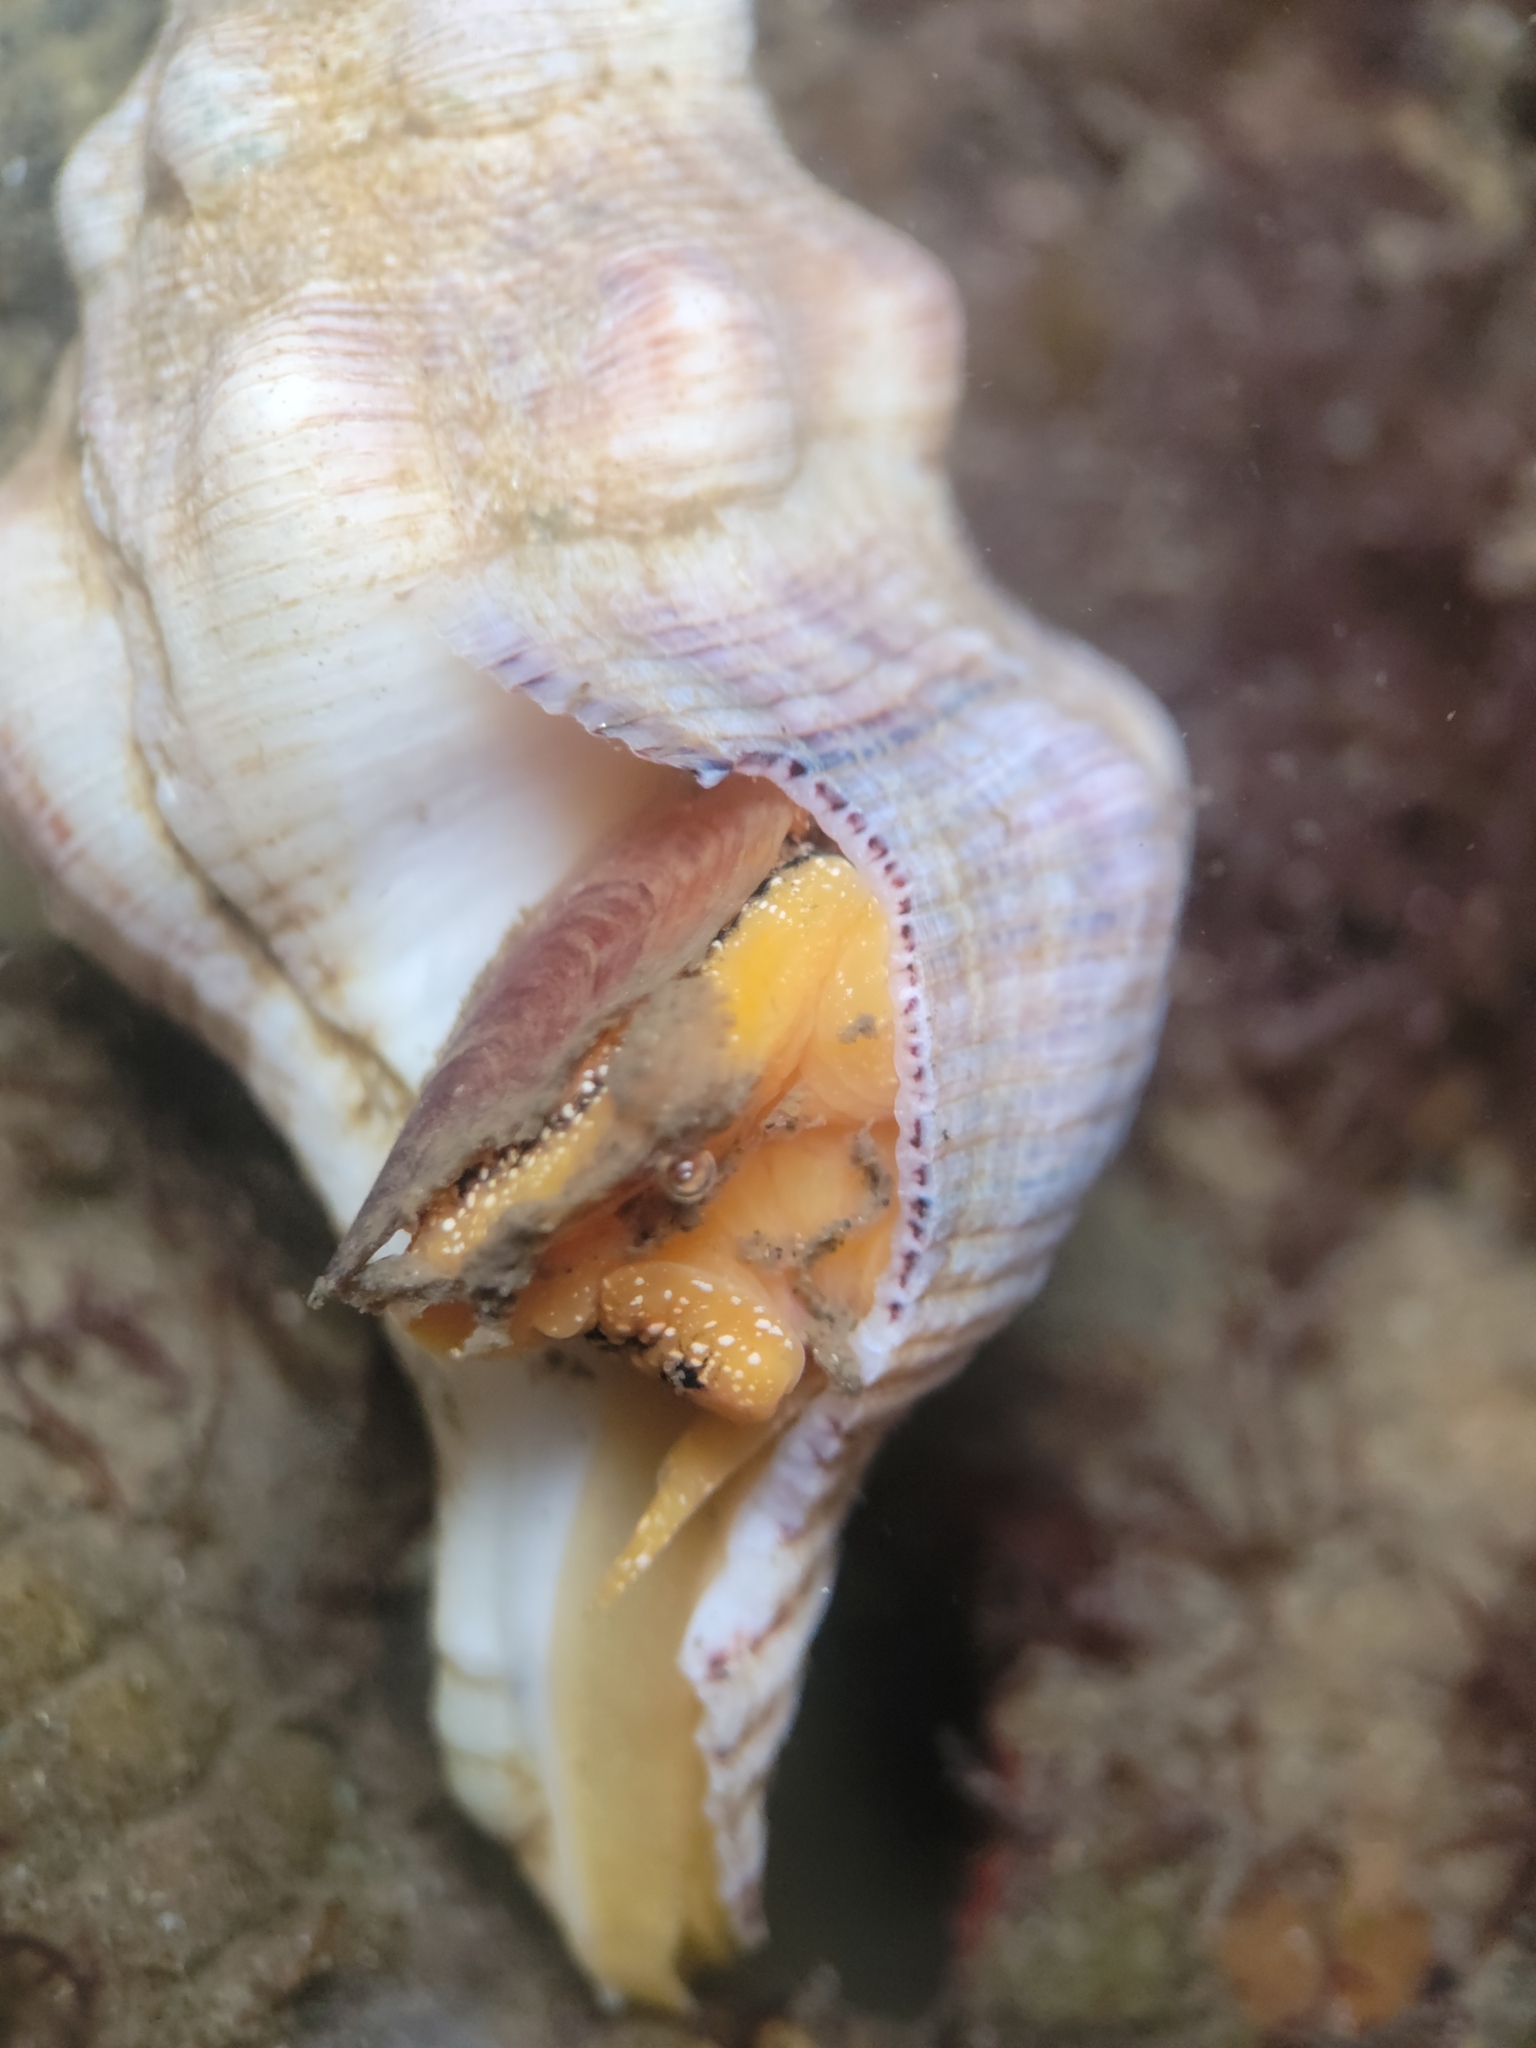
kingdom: Animalia
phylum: Mollusca
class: Gastropoda
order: Neogastropoda
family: Austrosiphonidae
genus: Kelletia
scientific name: Kelletia kelletii
